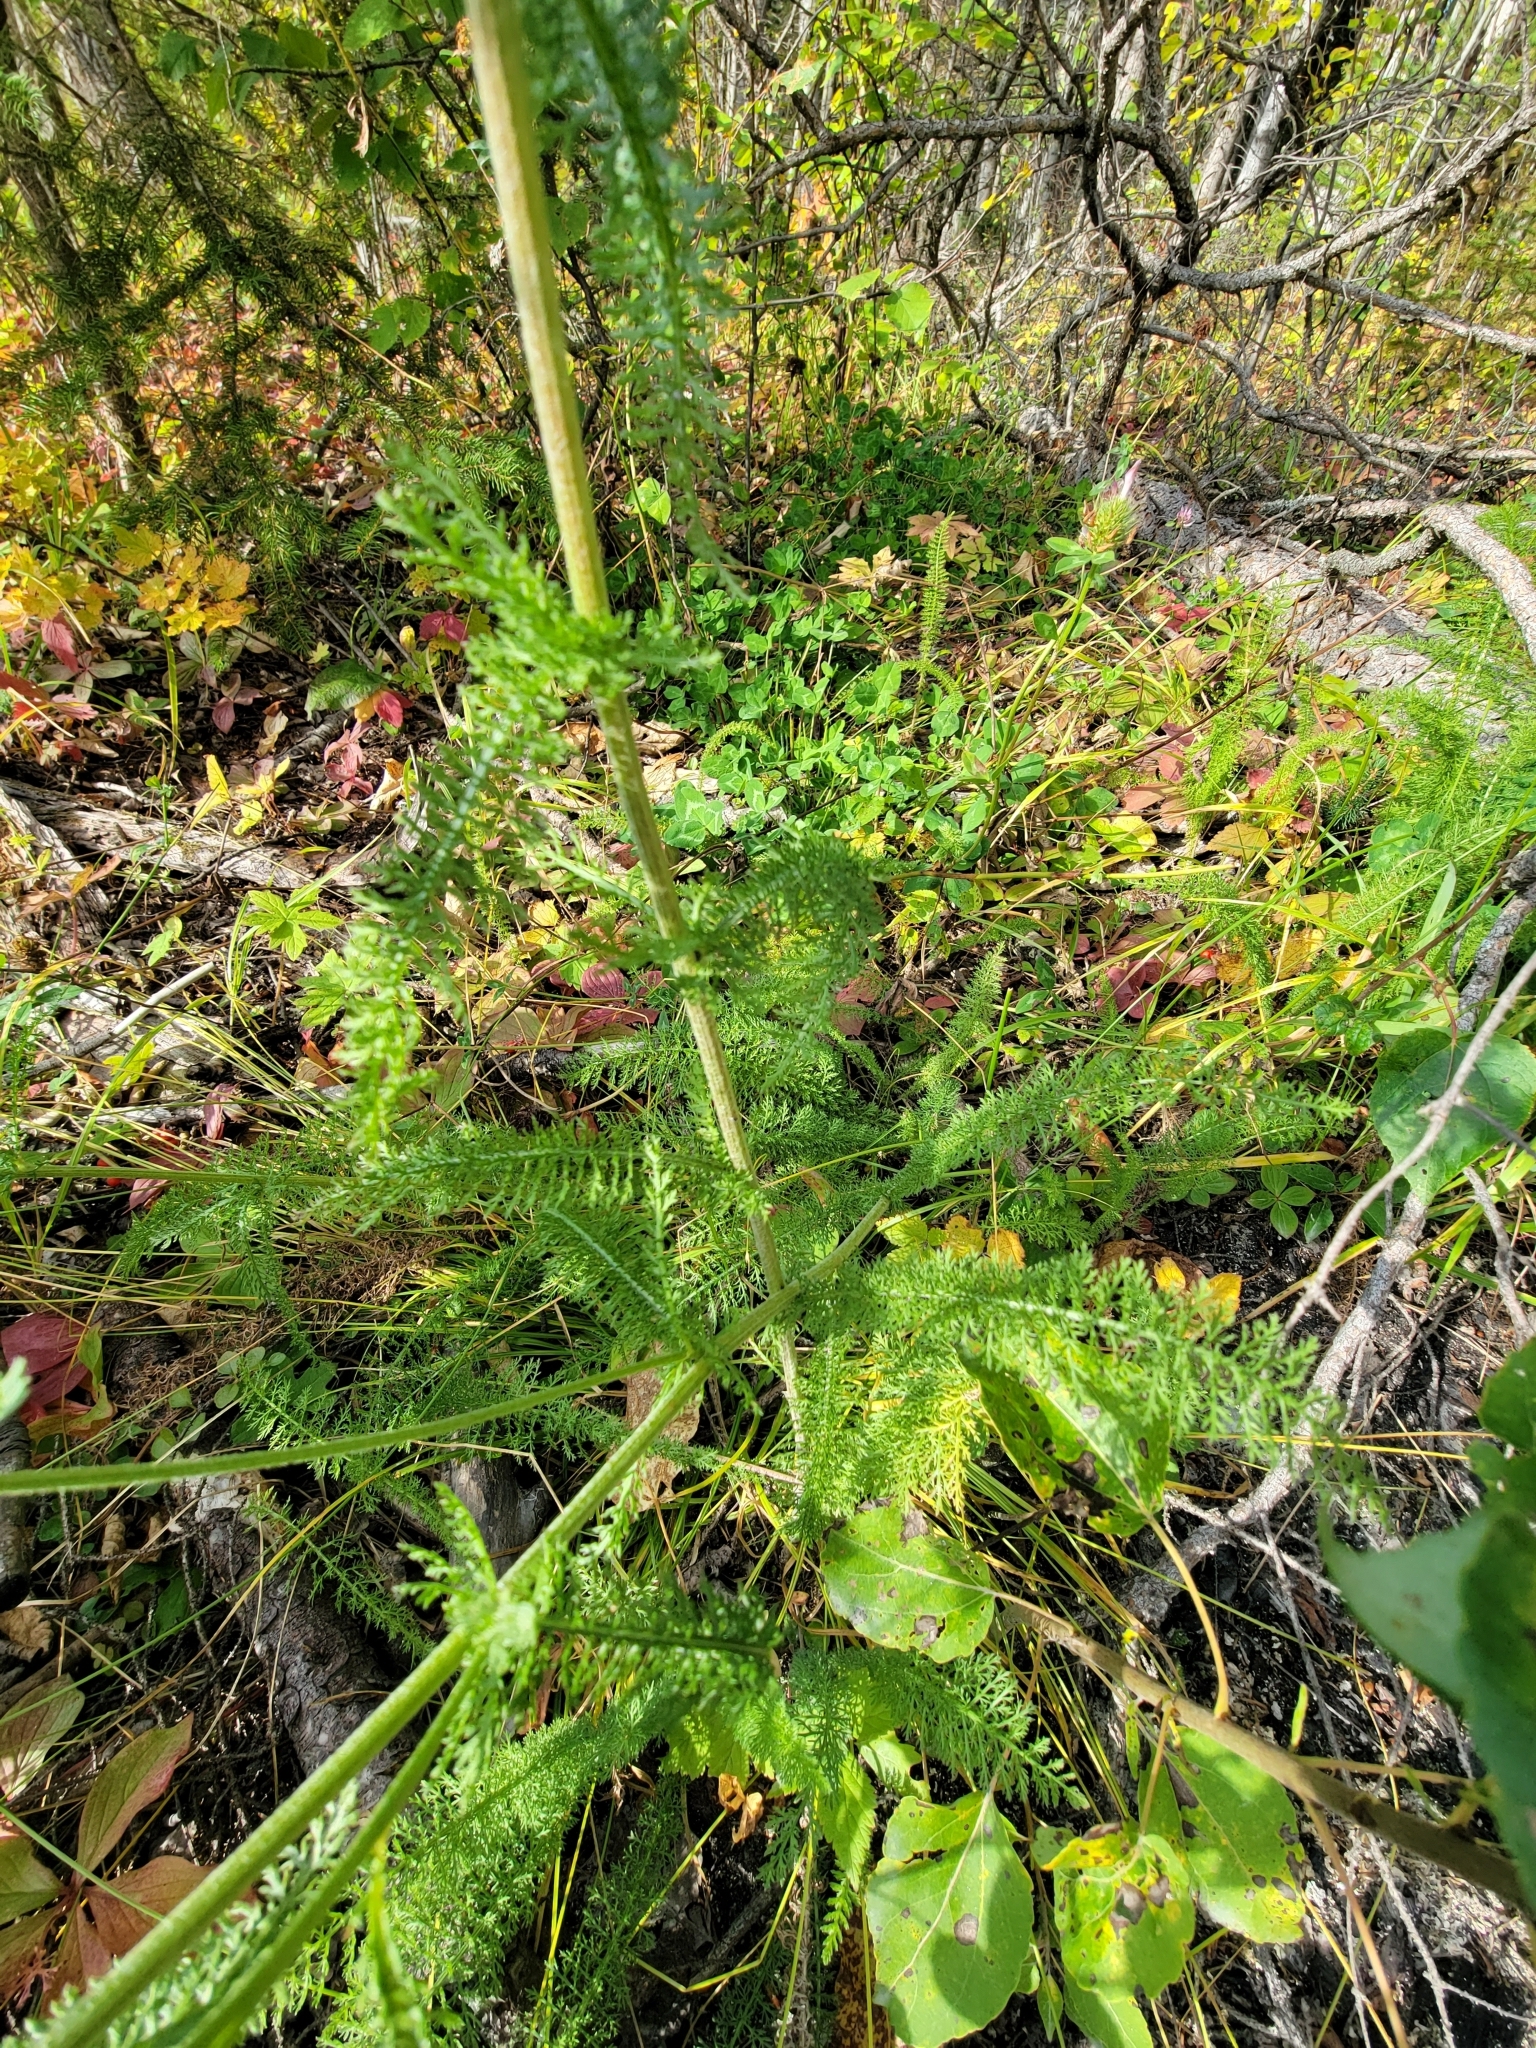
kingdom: Plantae
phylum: Tracheophyta
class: Magnoliopsida
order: Asterales
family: Asteraceae
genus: Achillea
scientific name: Achillea millefolium
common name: Yarrow
